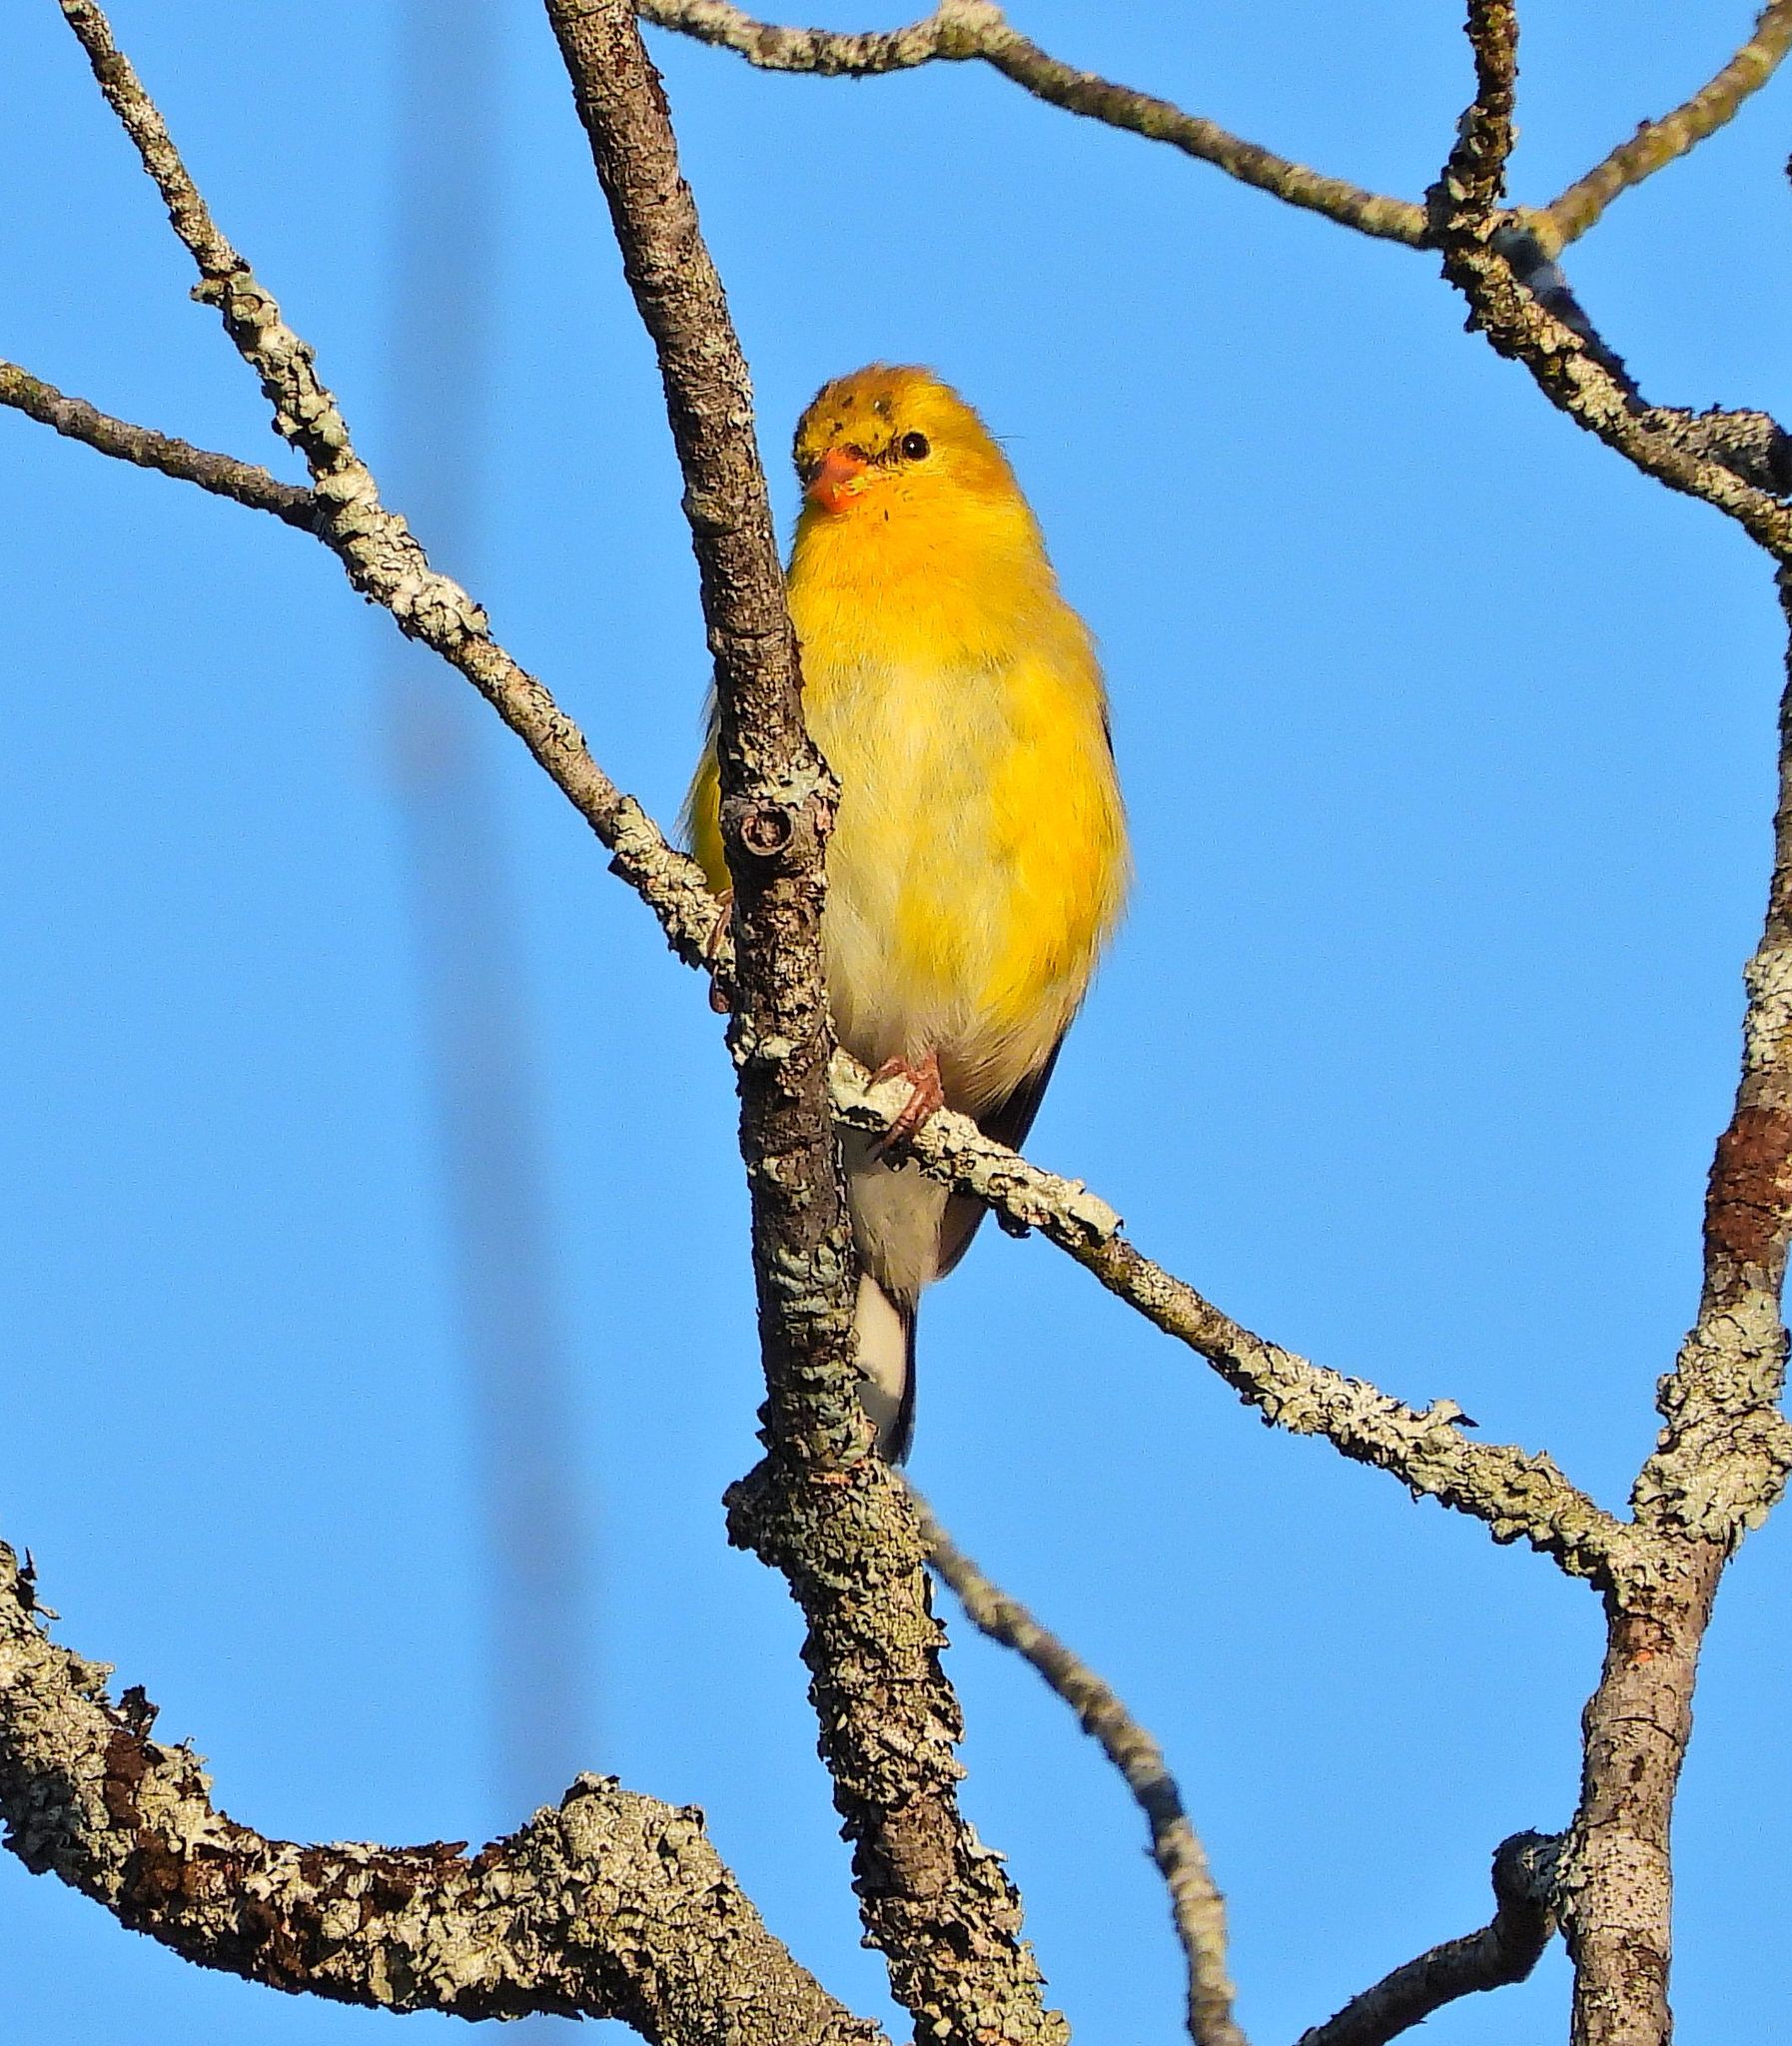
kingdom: Animalia
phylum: Chordata
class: Aves
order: Passeriformes
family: Fringillidae
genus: Spinus
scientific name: Spinus tristis
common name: American goldfinch
